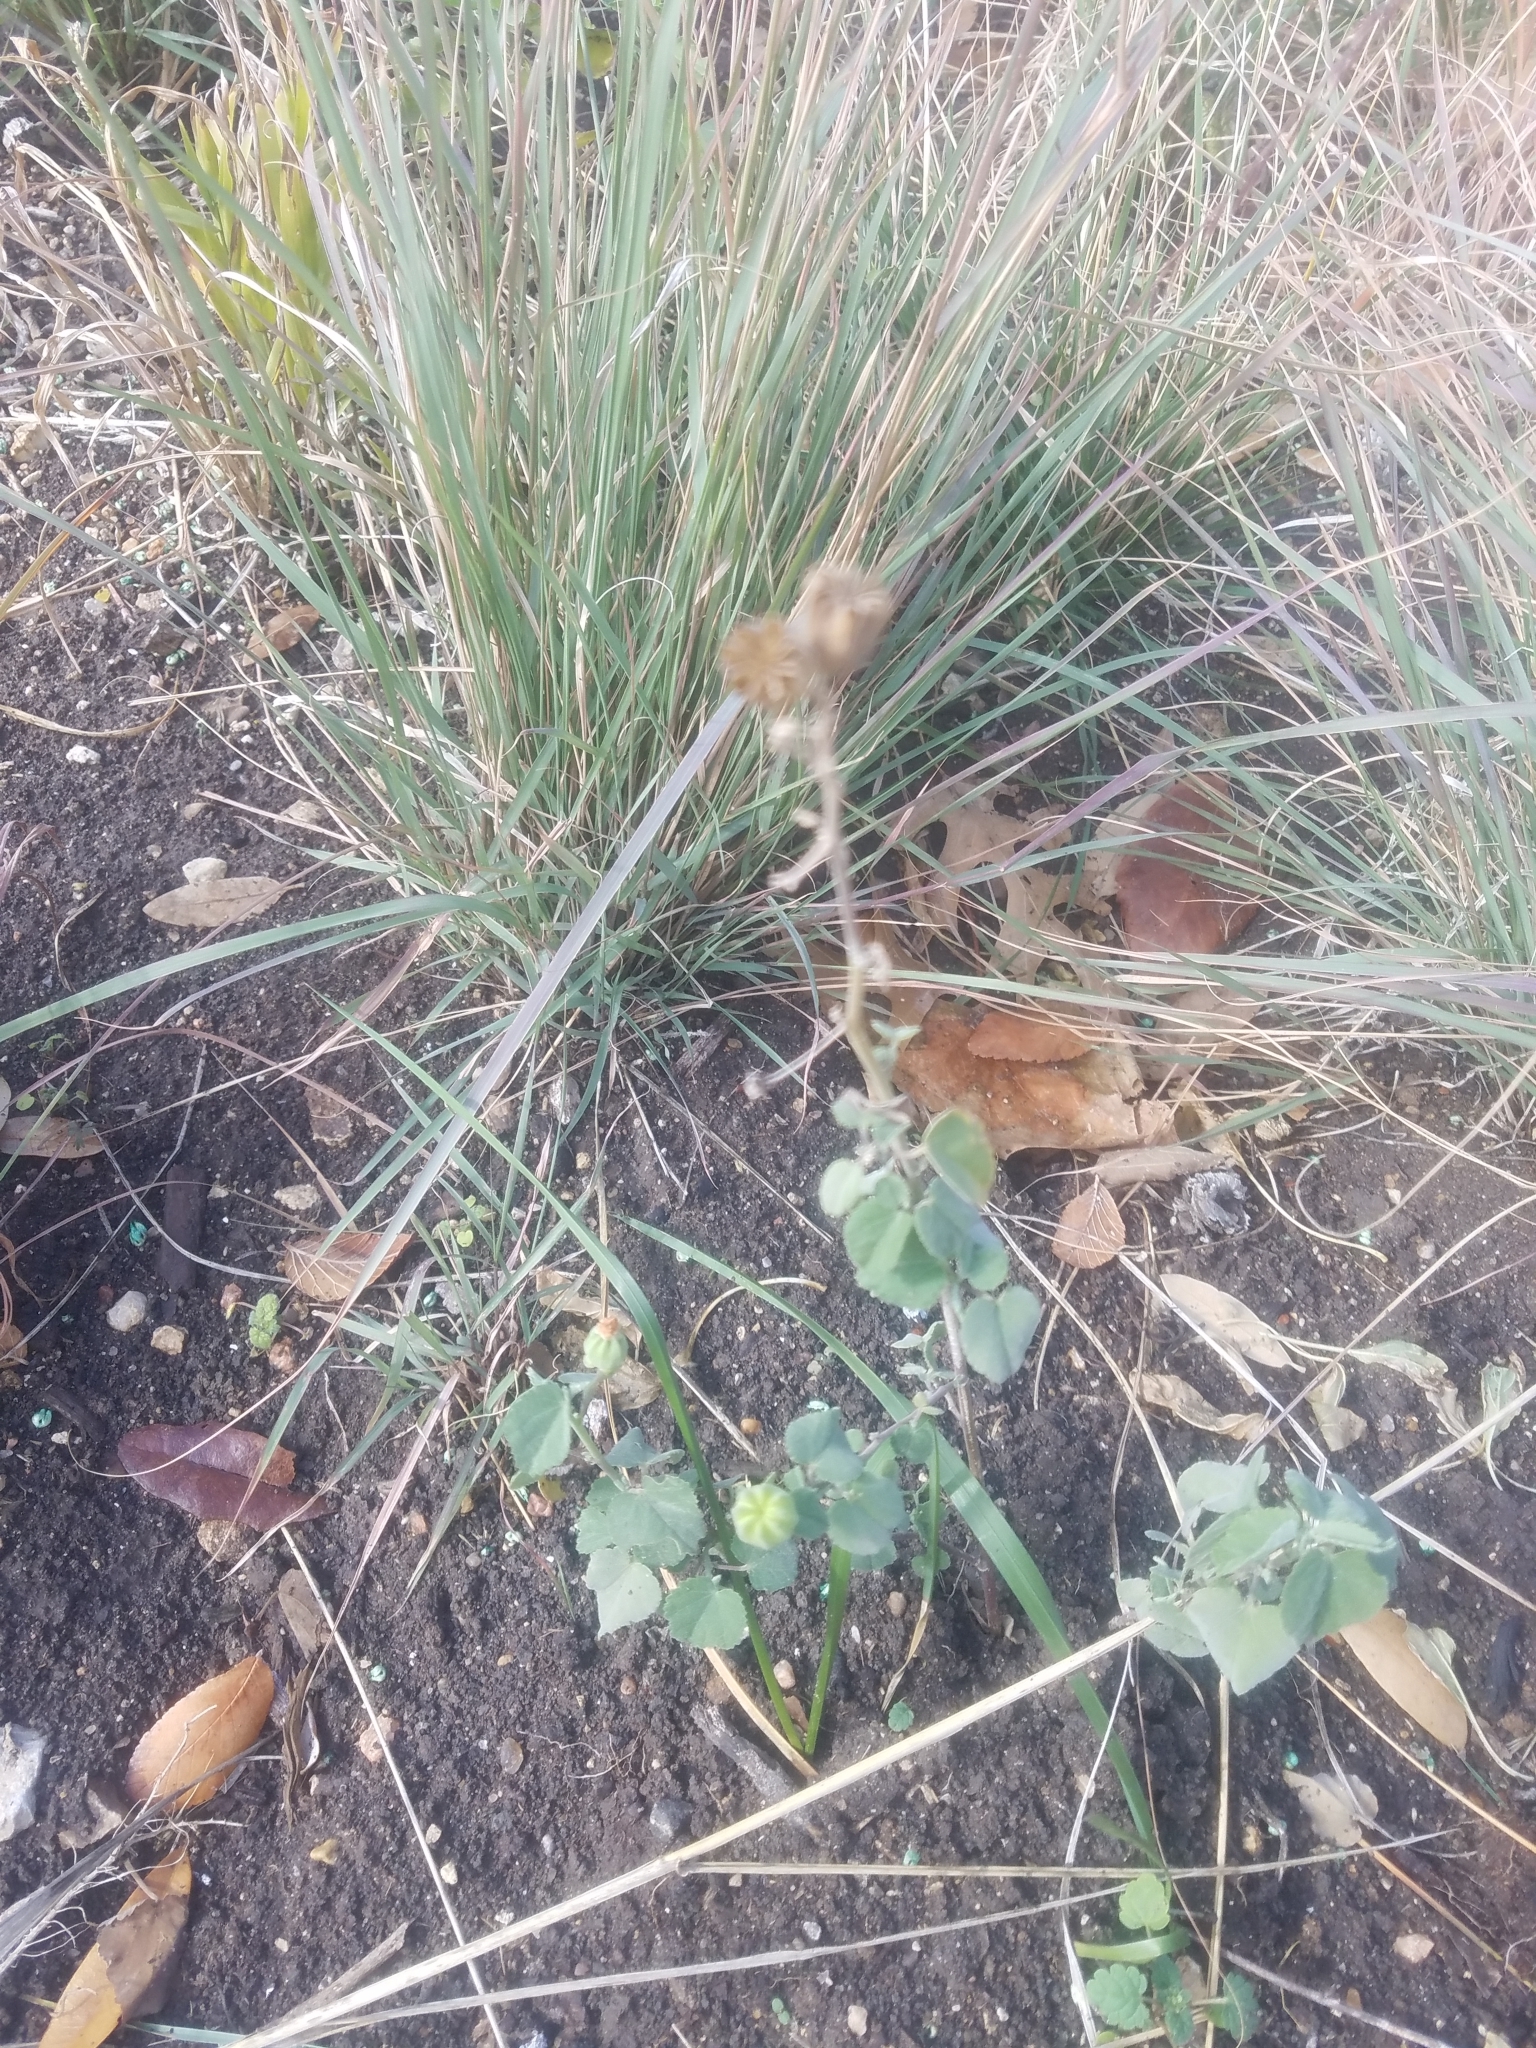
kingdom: Plantae
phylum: Tracheophyta
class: Magnoliopsida
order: Malvales
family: Malvaceae
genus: Abutilon
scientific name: Abutilon fruticosum
